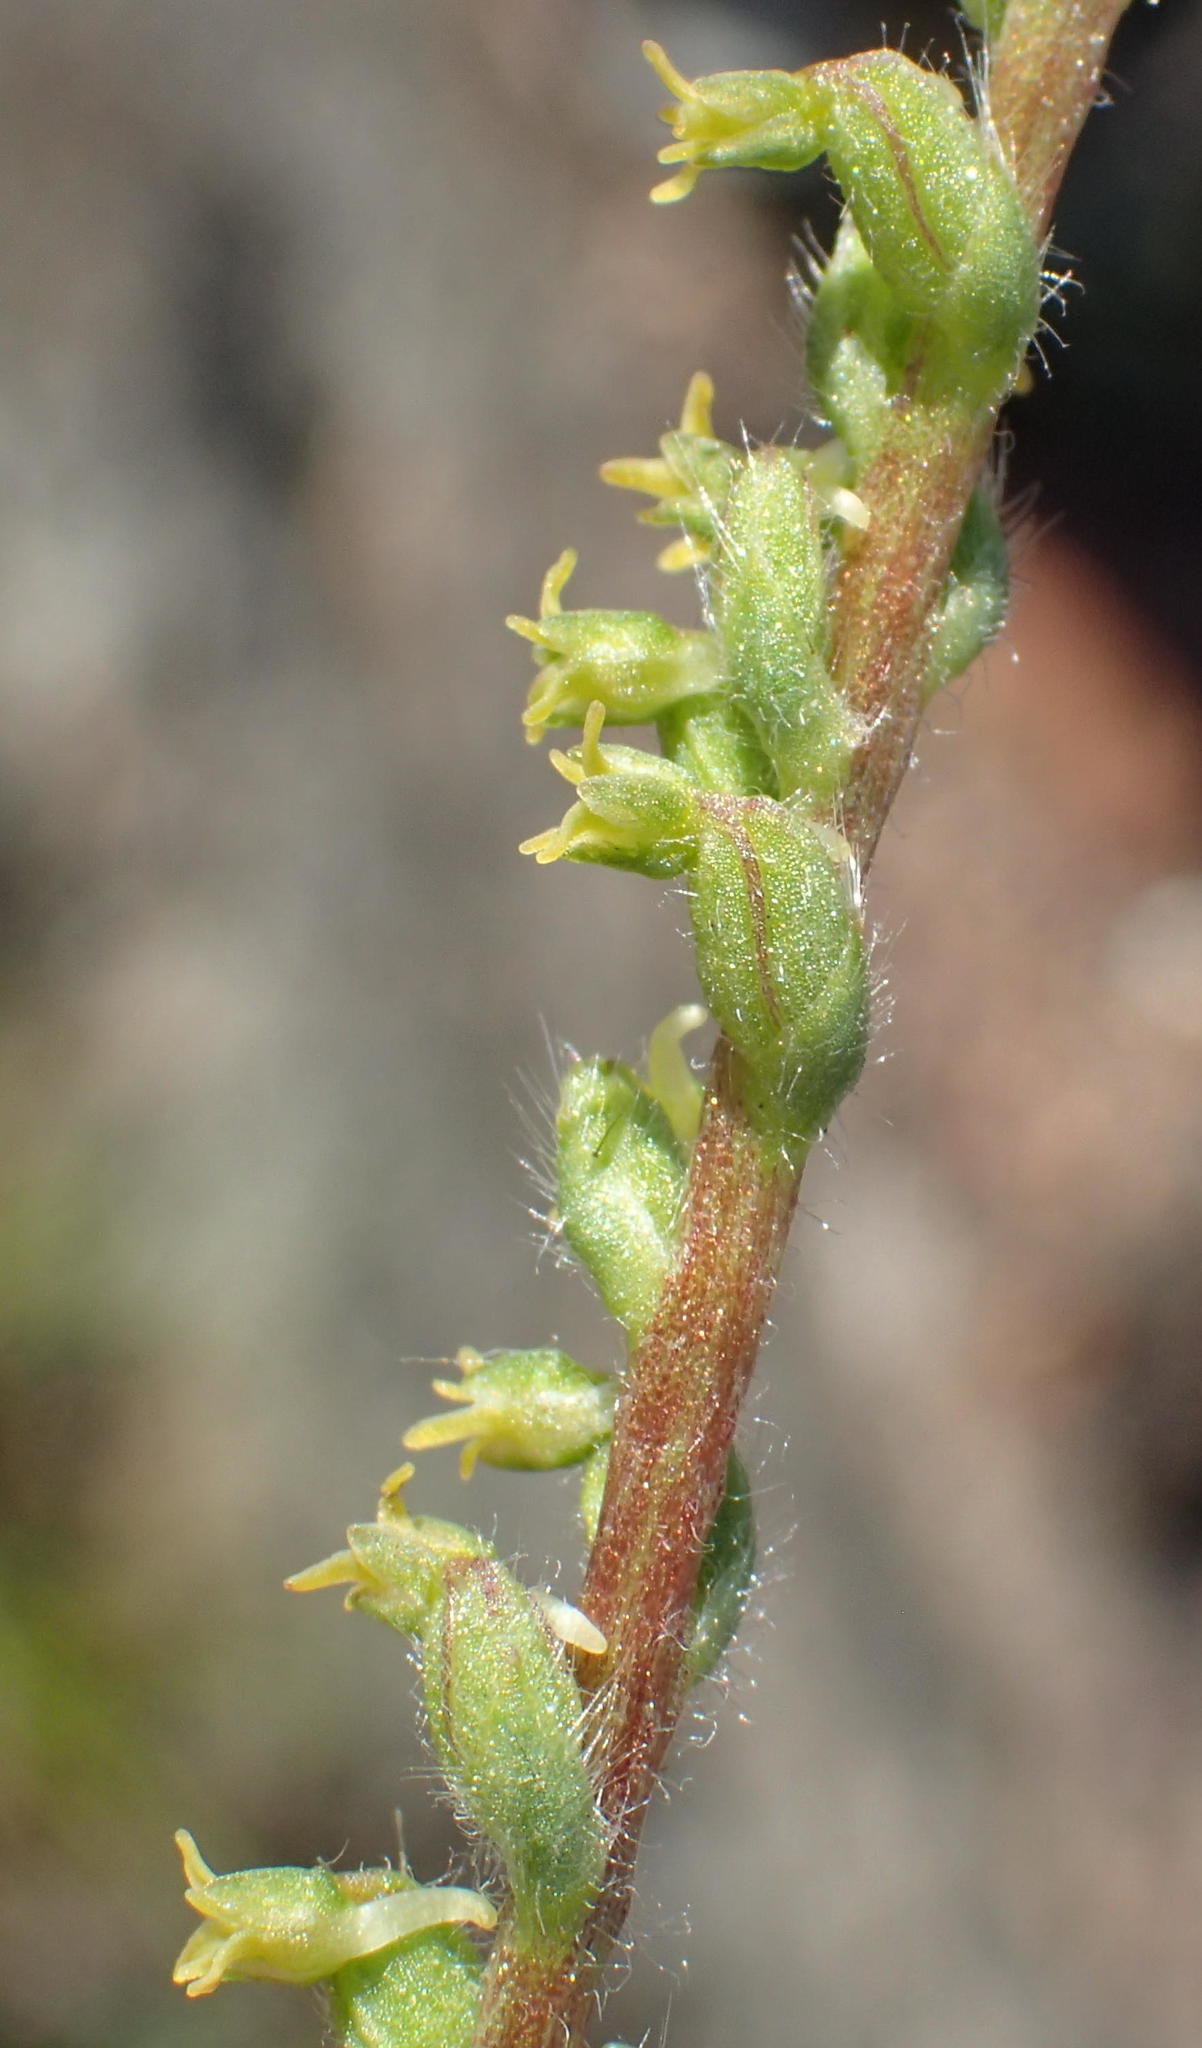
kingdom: Plantae
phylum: Tracheophyta
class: Liliopsida
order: Asparagales
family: Orchidaceae
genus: Holothrix
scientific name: Holothrix villosa
